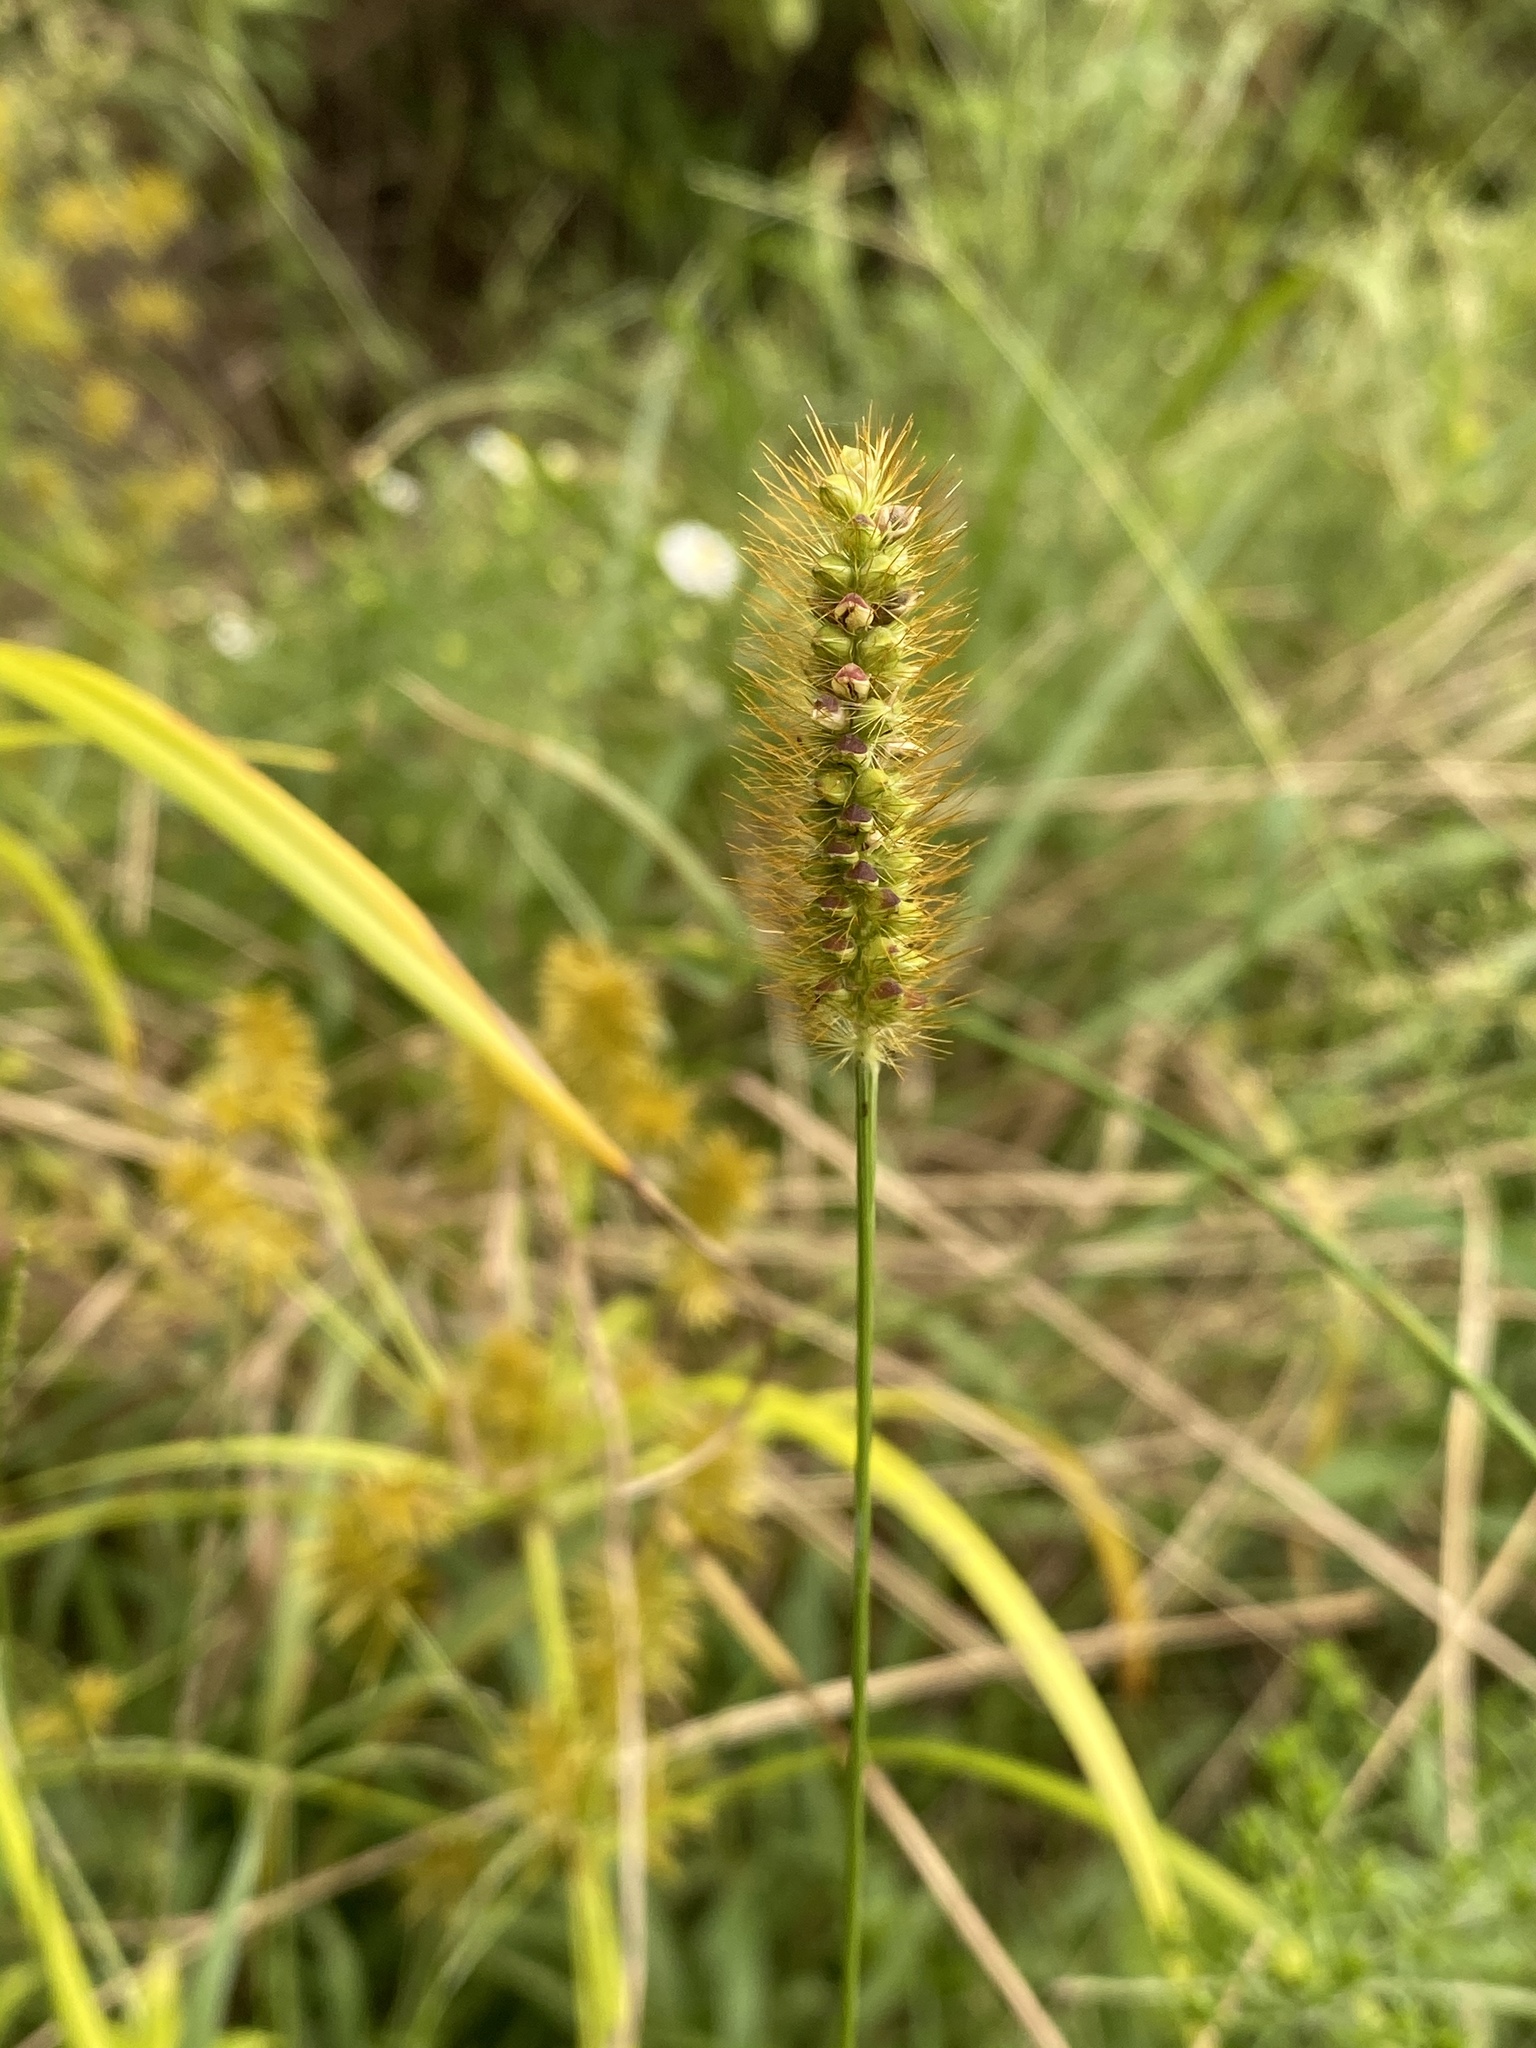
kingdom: Plantae
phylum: Tracheophyta
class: Liliopsida
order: Poales
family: Poaceae
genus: Setaria
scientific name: Setaria pumila
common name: Yellow bristle-grass
